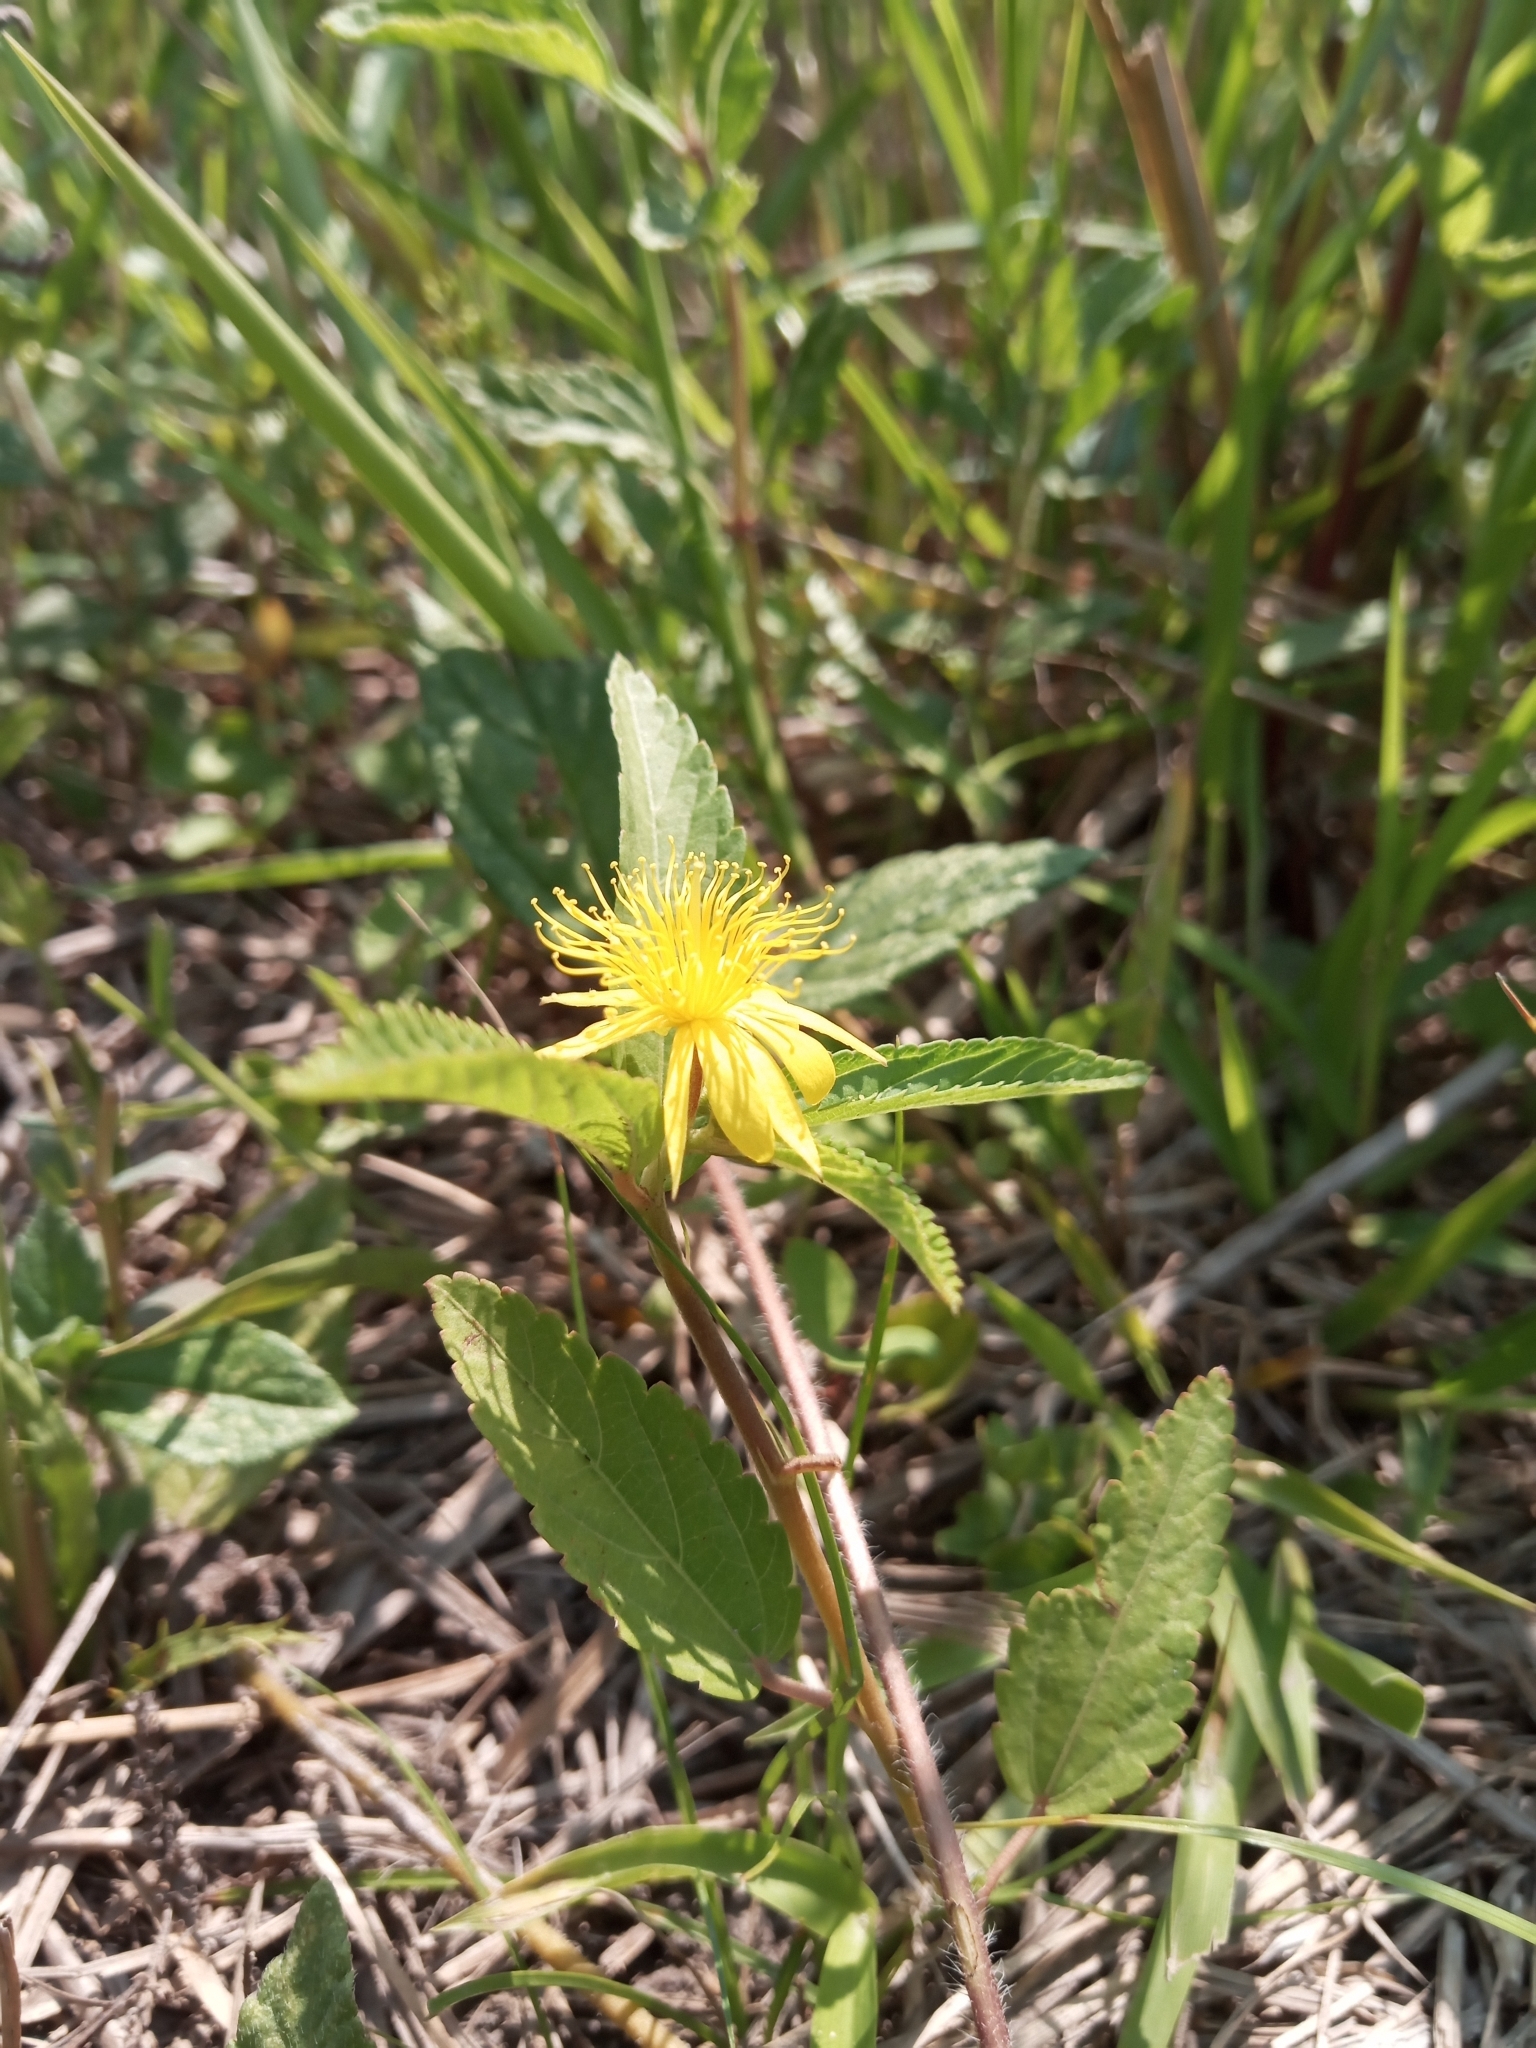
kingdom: Plantae
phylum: Tracheophyta
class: Magnoliopsida
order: Malvales
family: Malvaceae
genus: Corchorus
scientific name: Corchorus argutus
